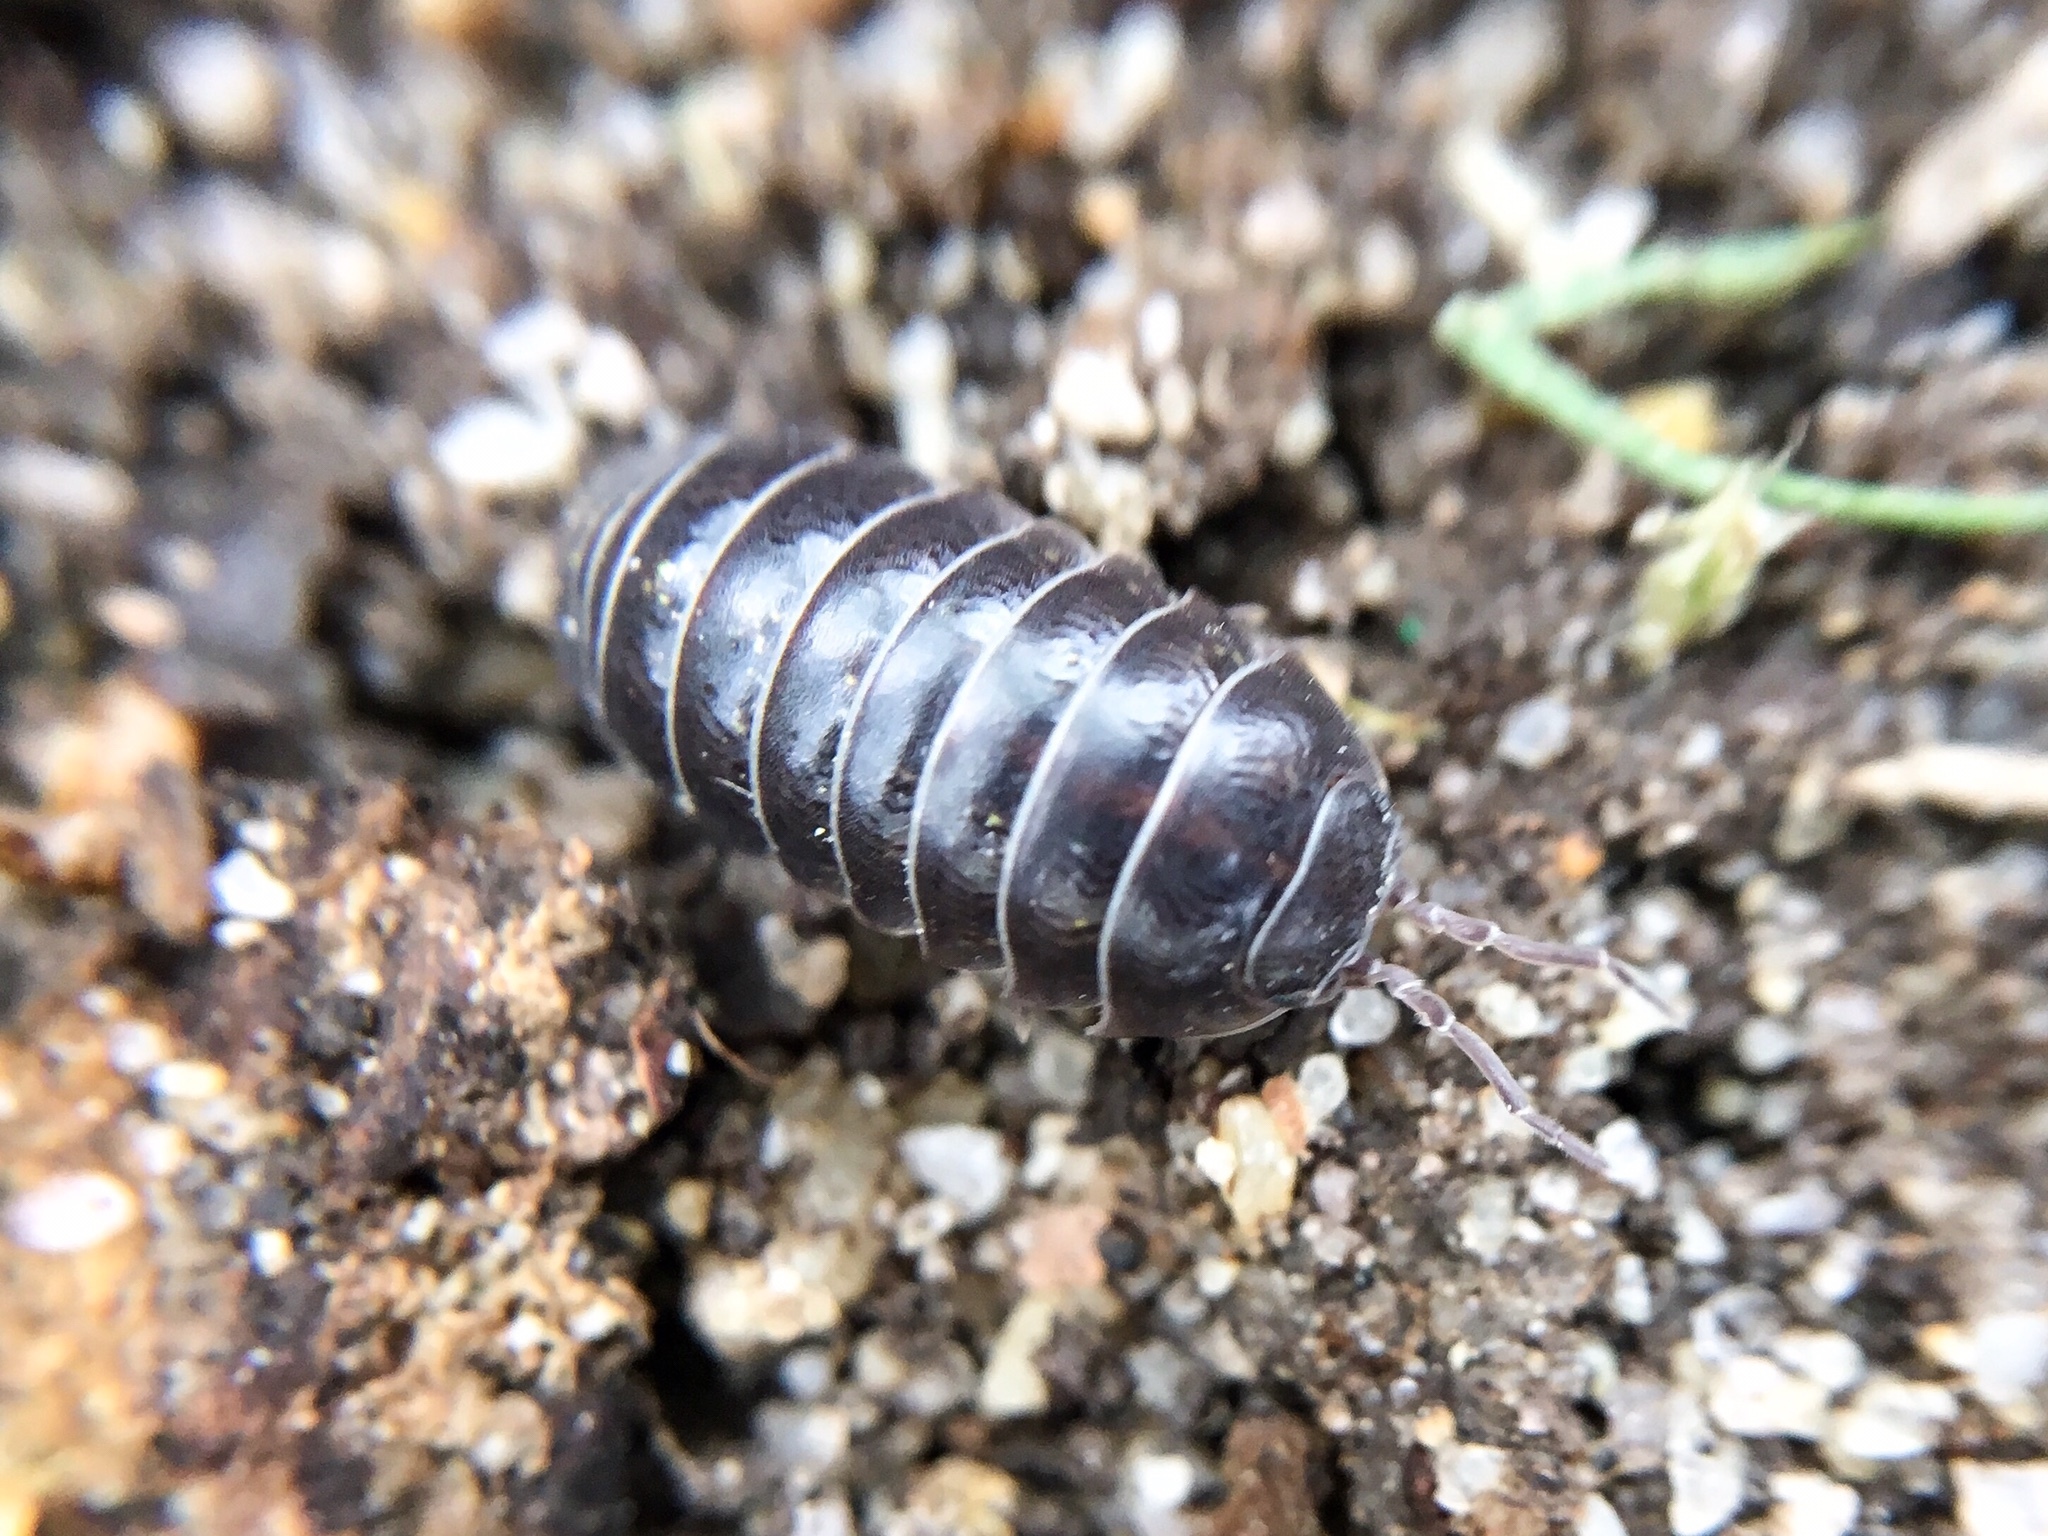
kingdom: Animalia
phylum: Arthropoda
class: Malacostraca
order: Isopoda
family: Armadillidiidae
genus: Armadillidium
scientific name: Armadillidium vulgare
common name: Common pill woodlouse
